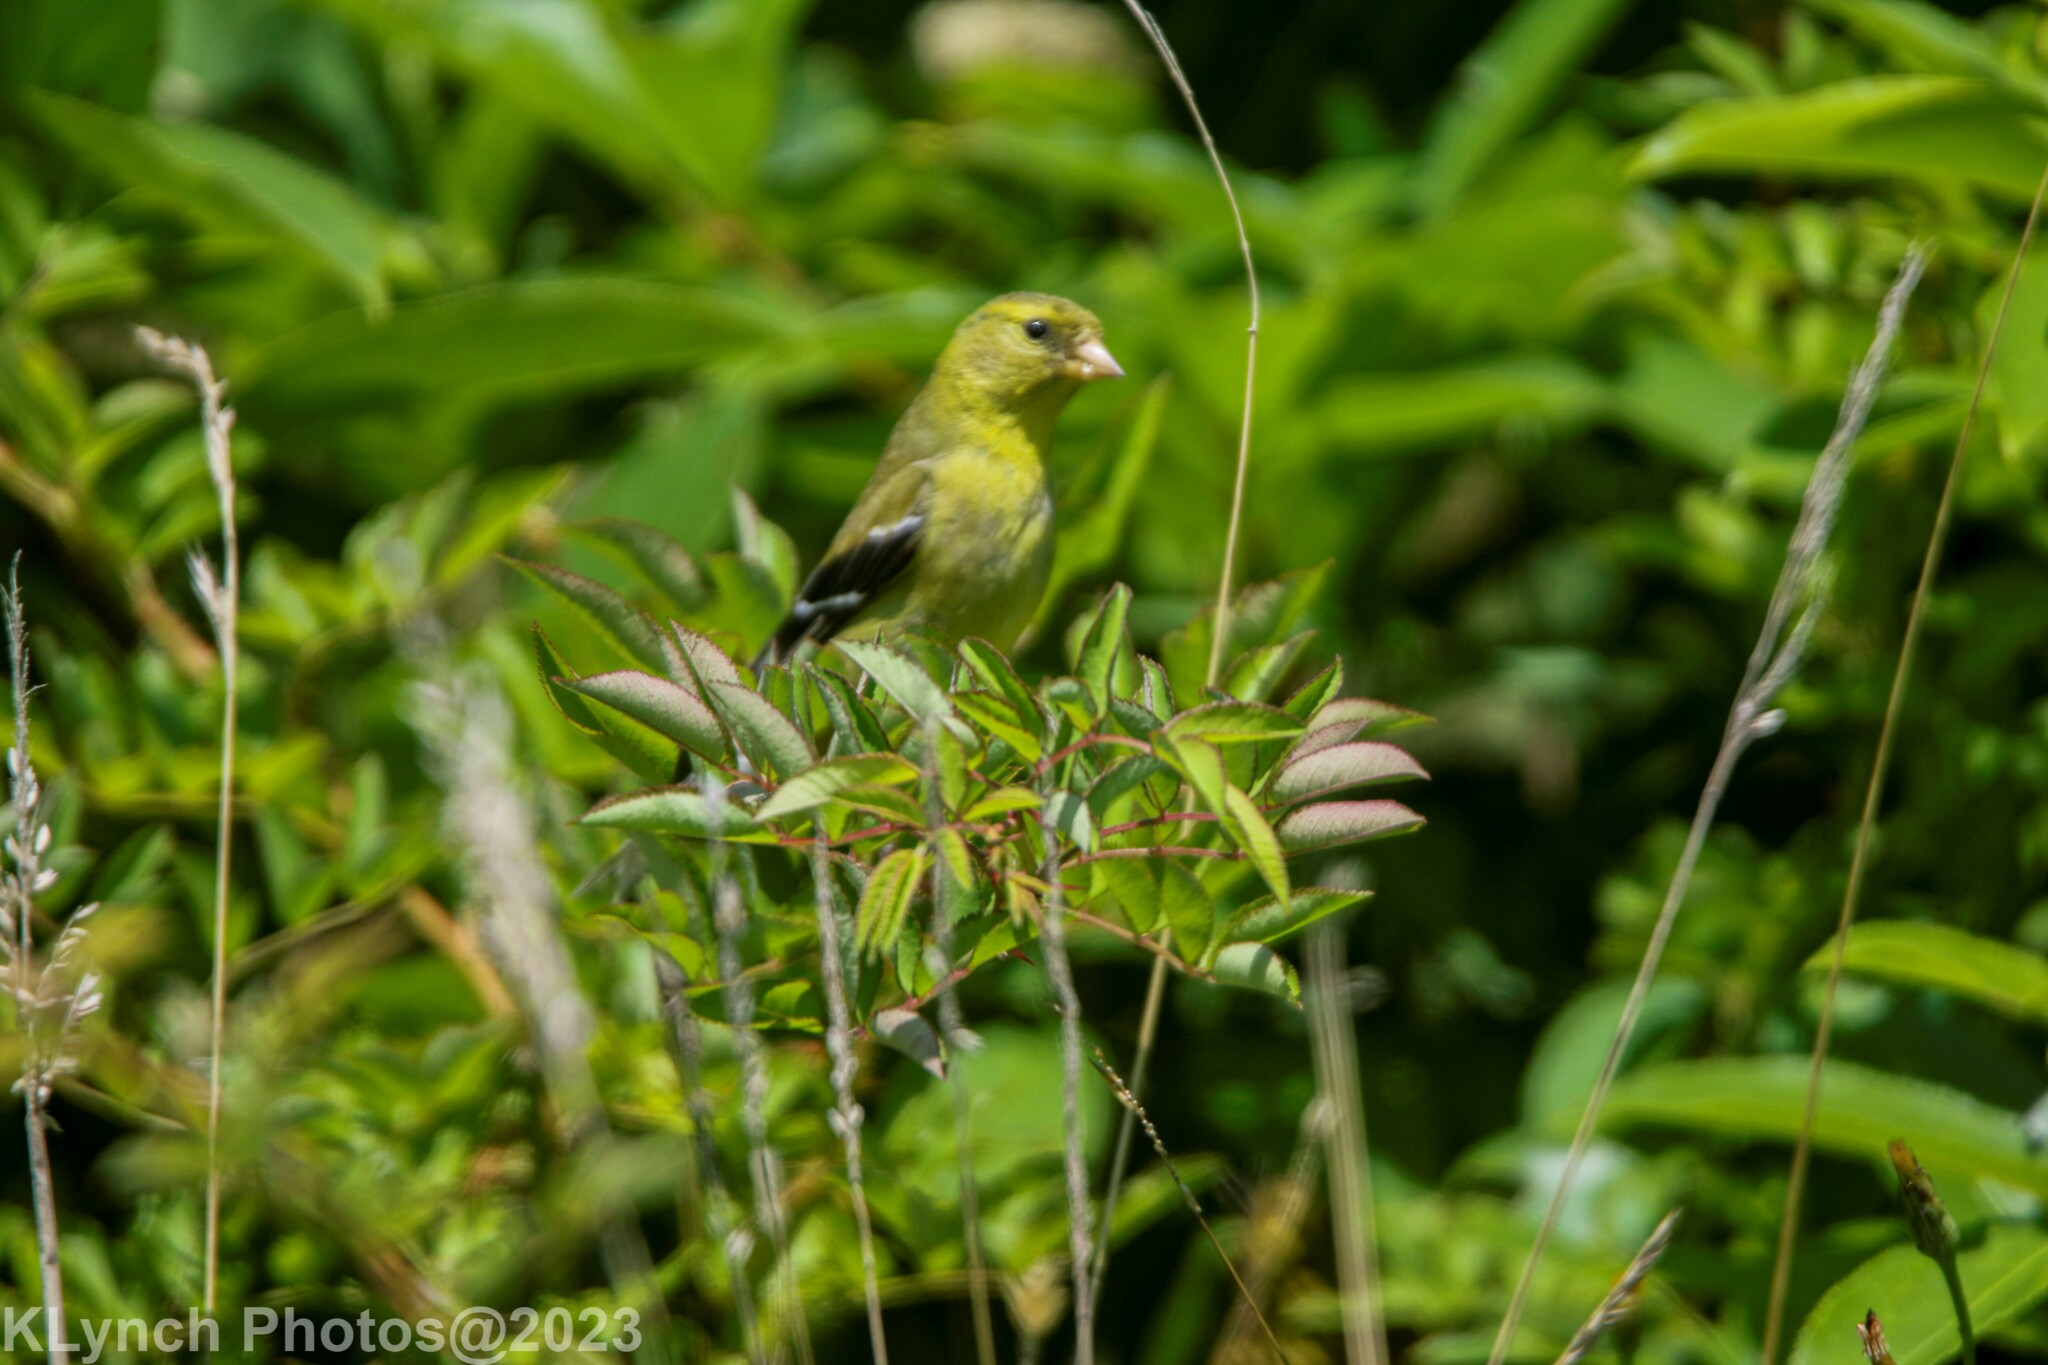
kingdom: Animalia
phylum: Chordata
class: Aves
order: Passeriformes
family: Fringillidae
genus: Spinus
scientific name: Spinus tristis
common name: American goldfinch
